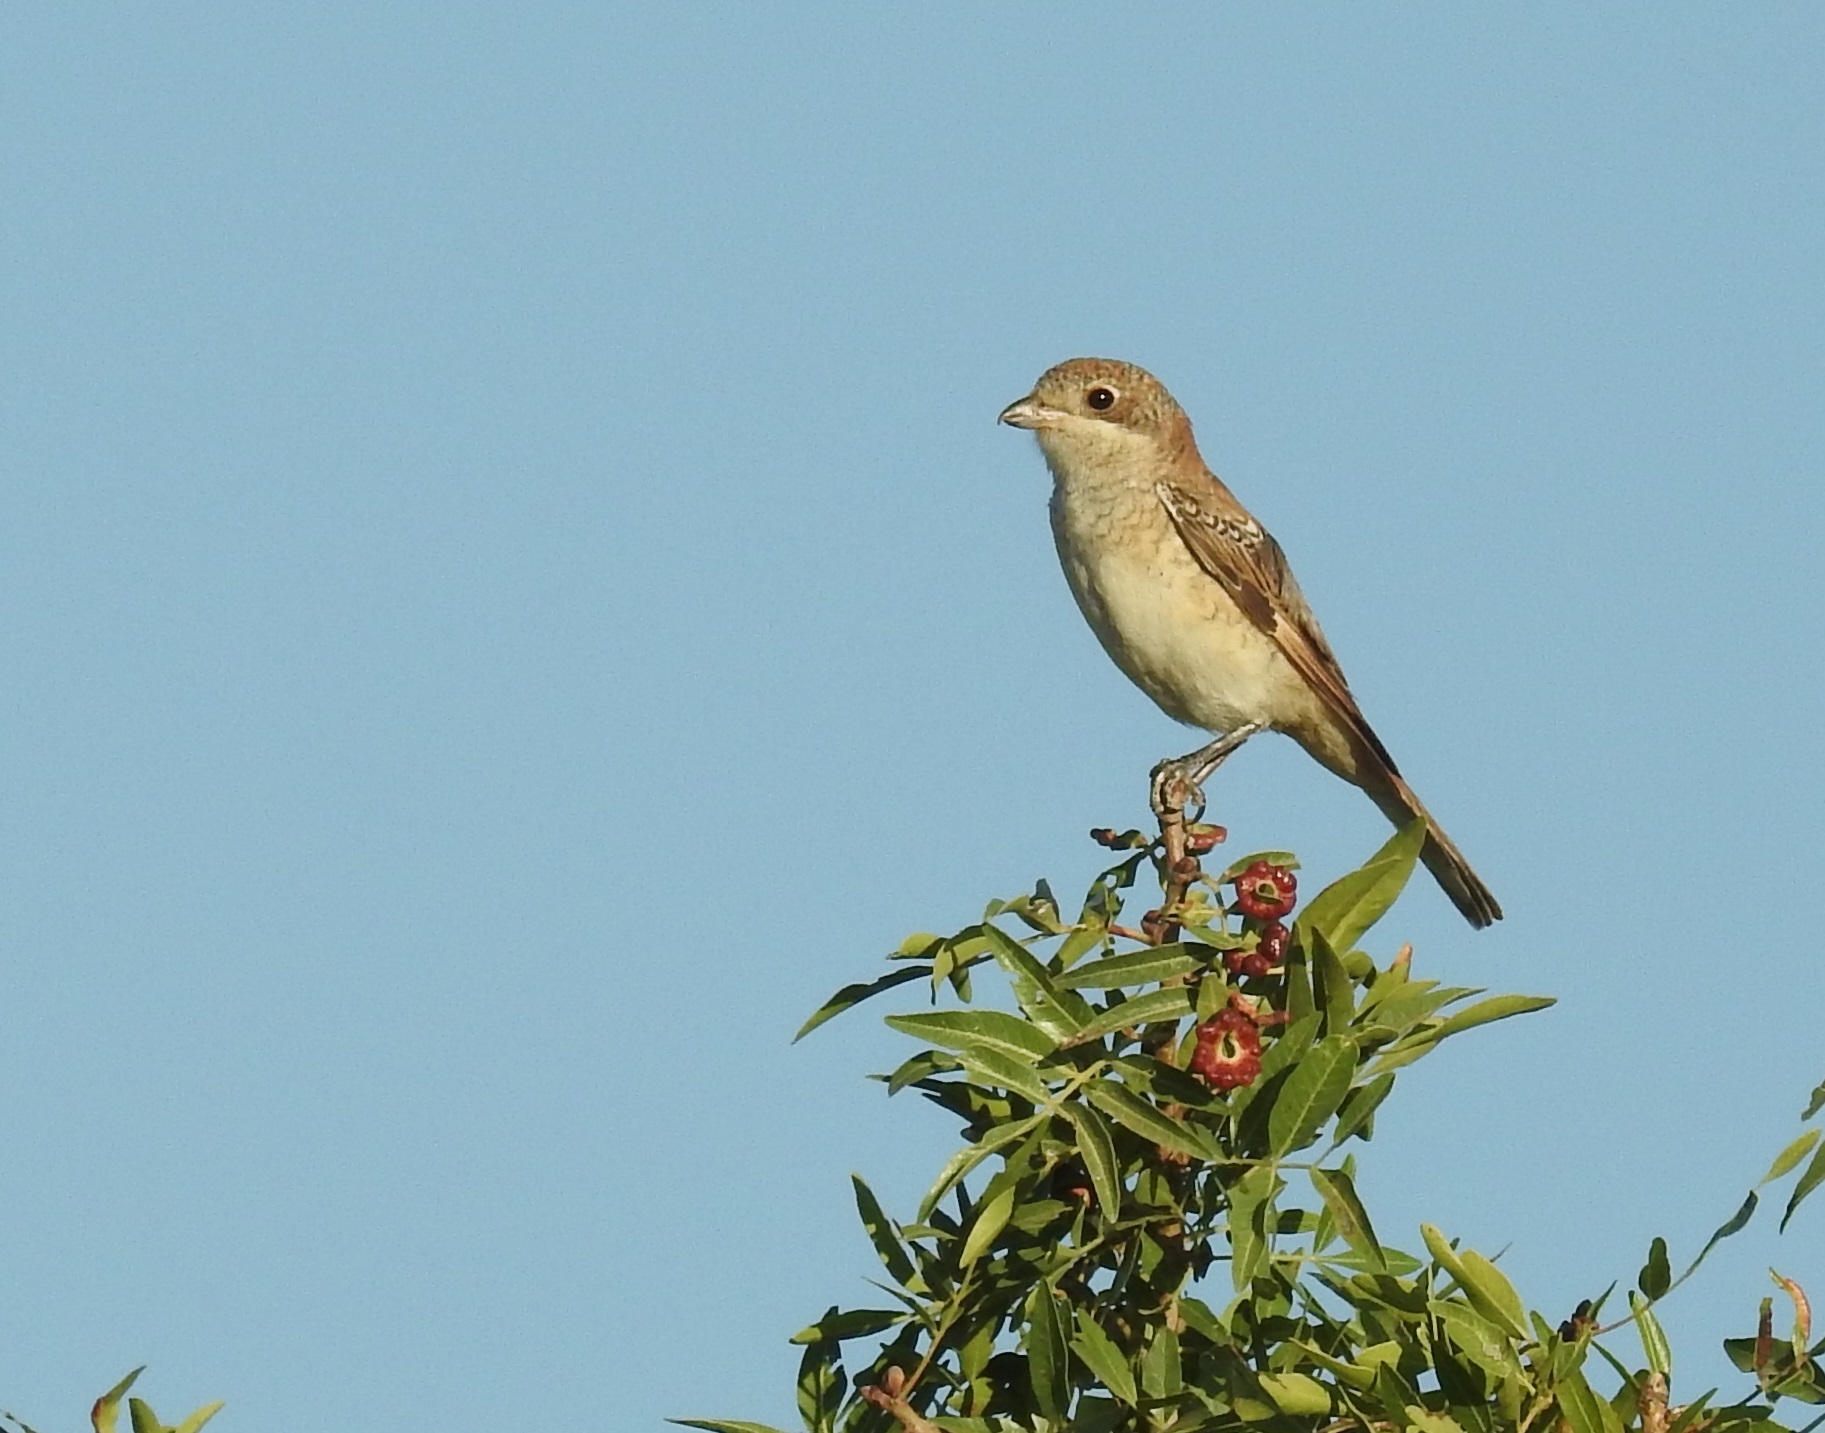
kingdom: Animalia
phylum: Chordata
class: Aves
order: Passeriformes
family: Laniidae
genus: Lanius
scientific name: Lanius senator
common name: Woodchat shrike
